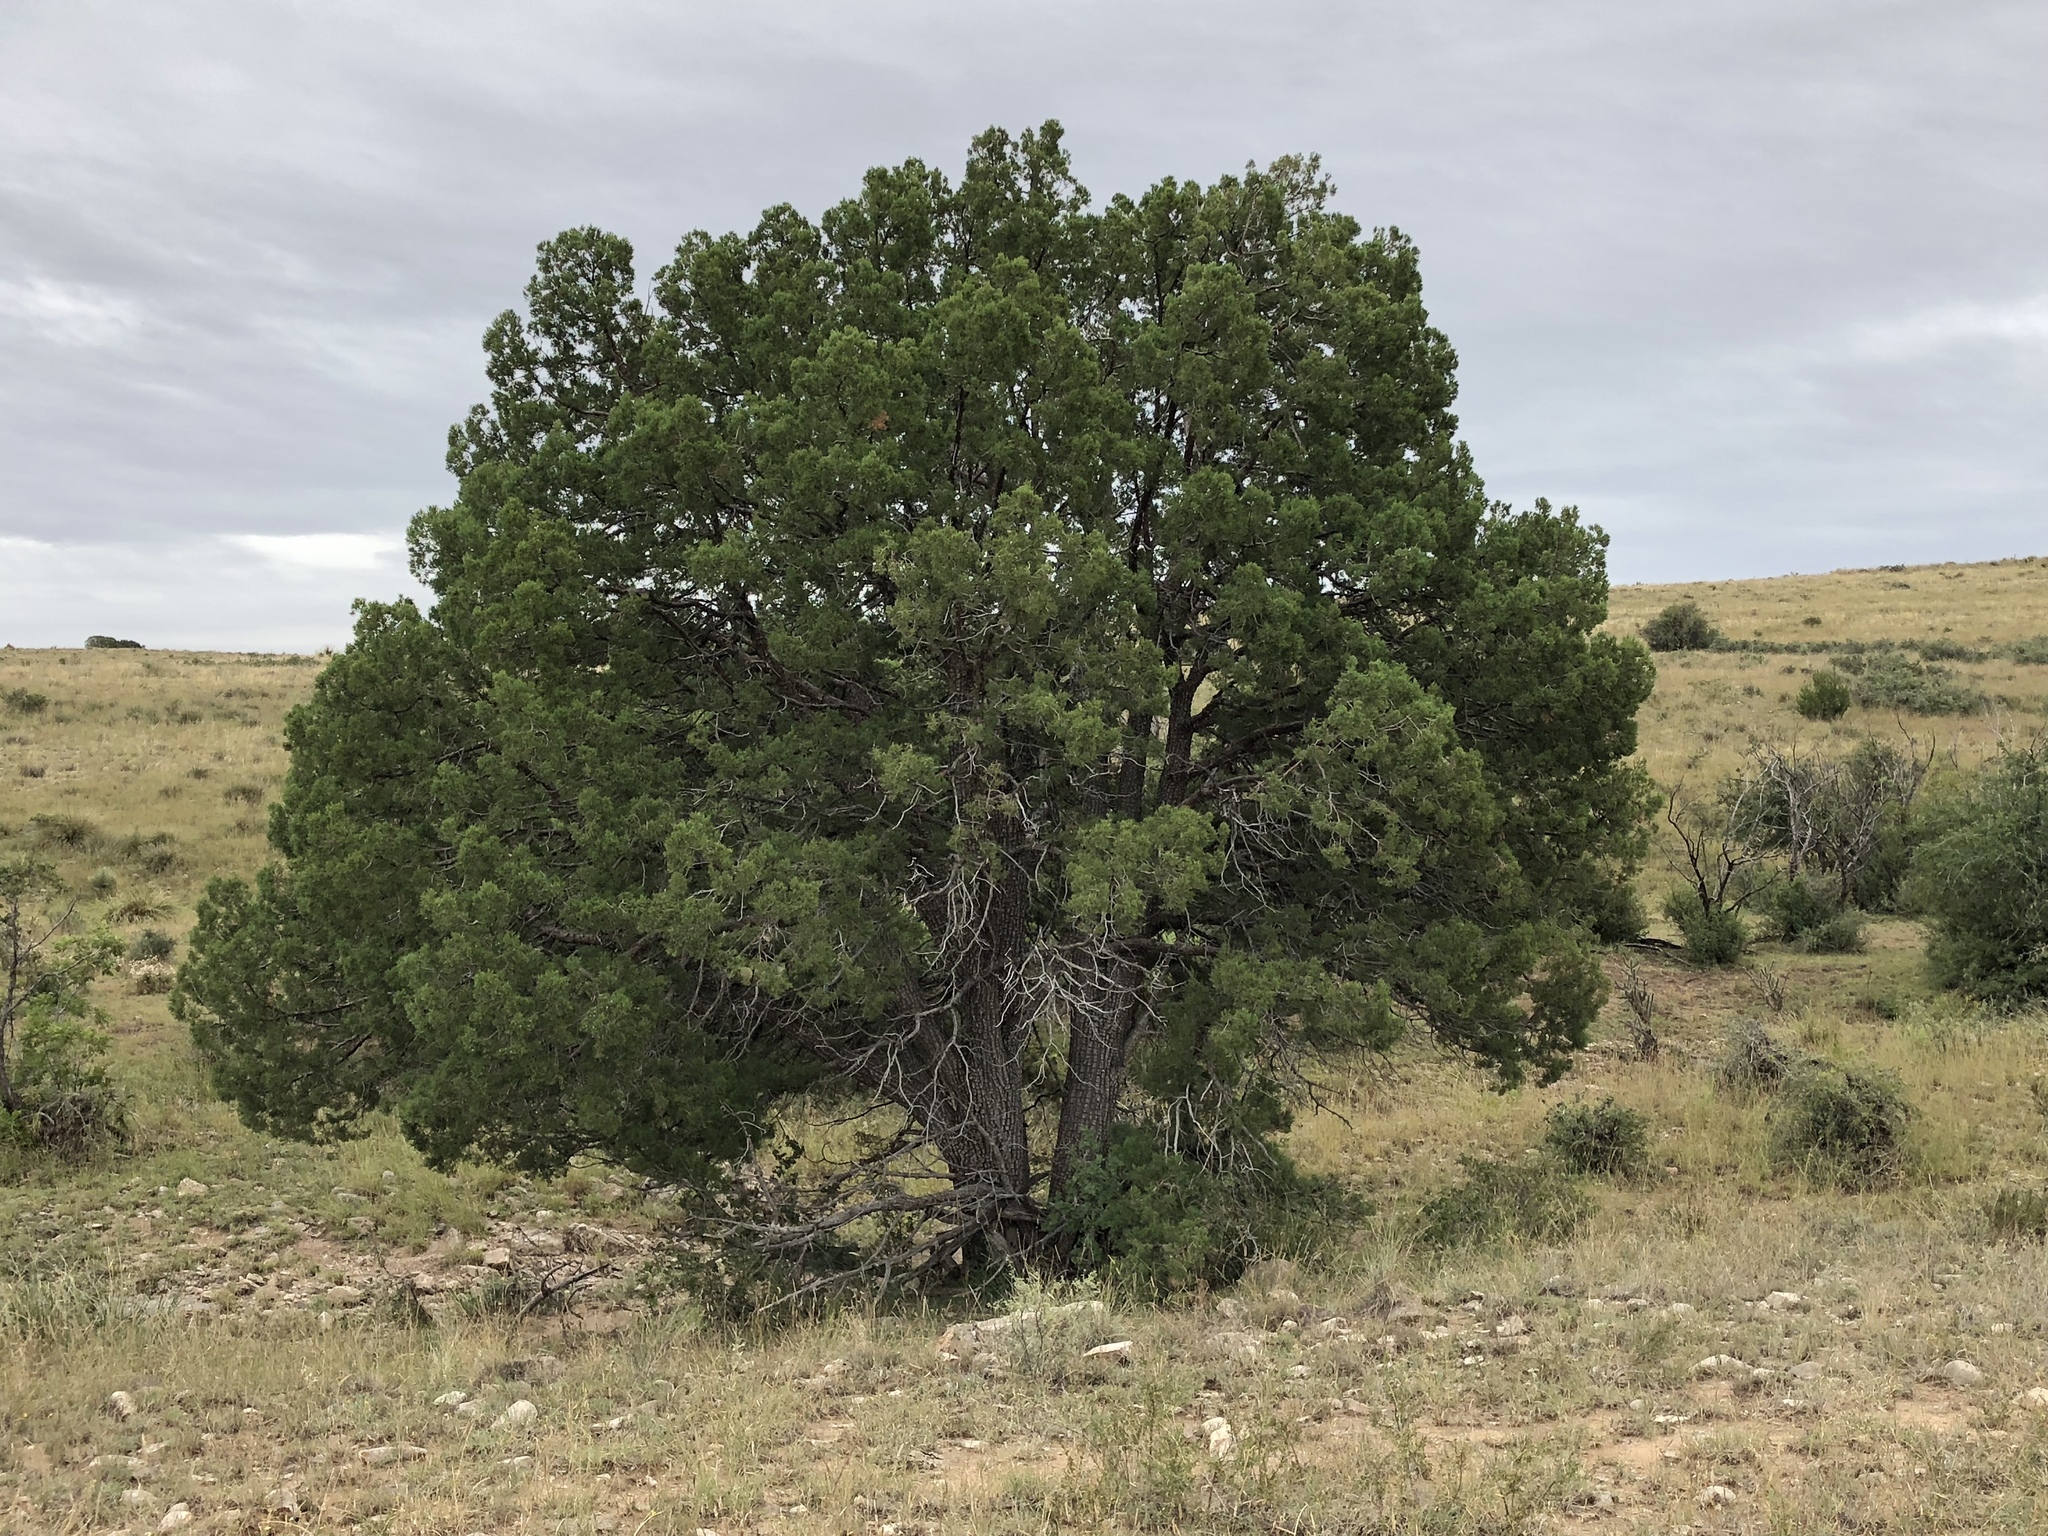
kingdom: Plantae
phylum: Tracheophyta
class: Pinopsida
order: Pinales
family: Cupressaceae
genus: Juniperus
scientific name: Juniperus deppeana
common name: Alligator juniper
